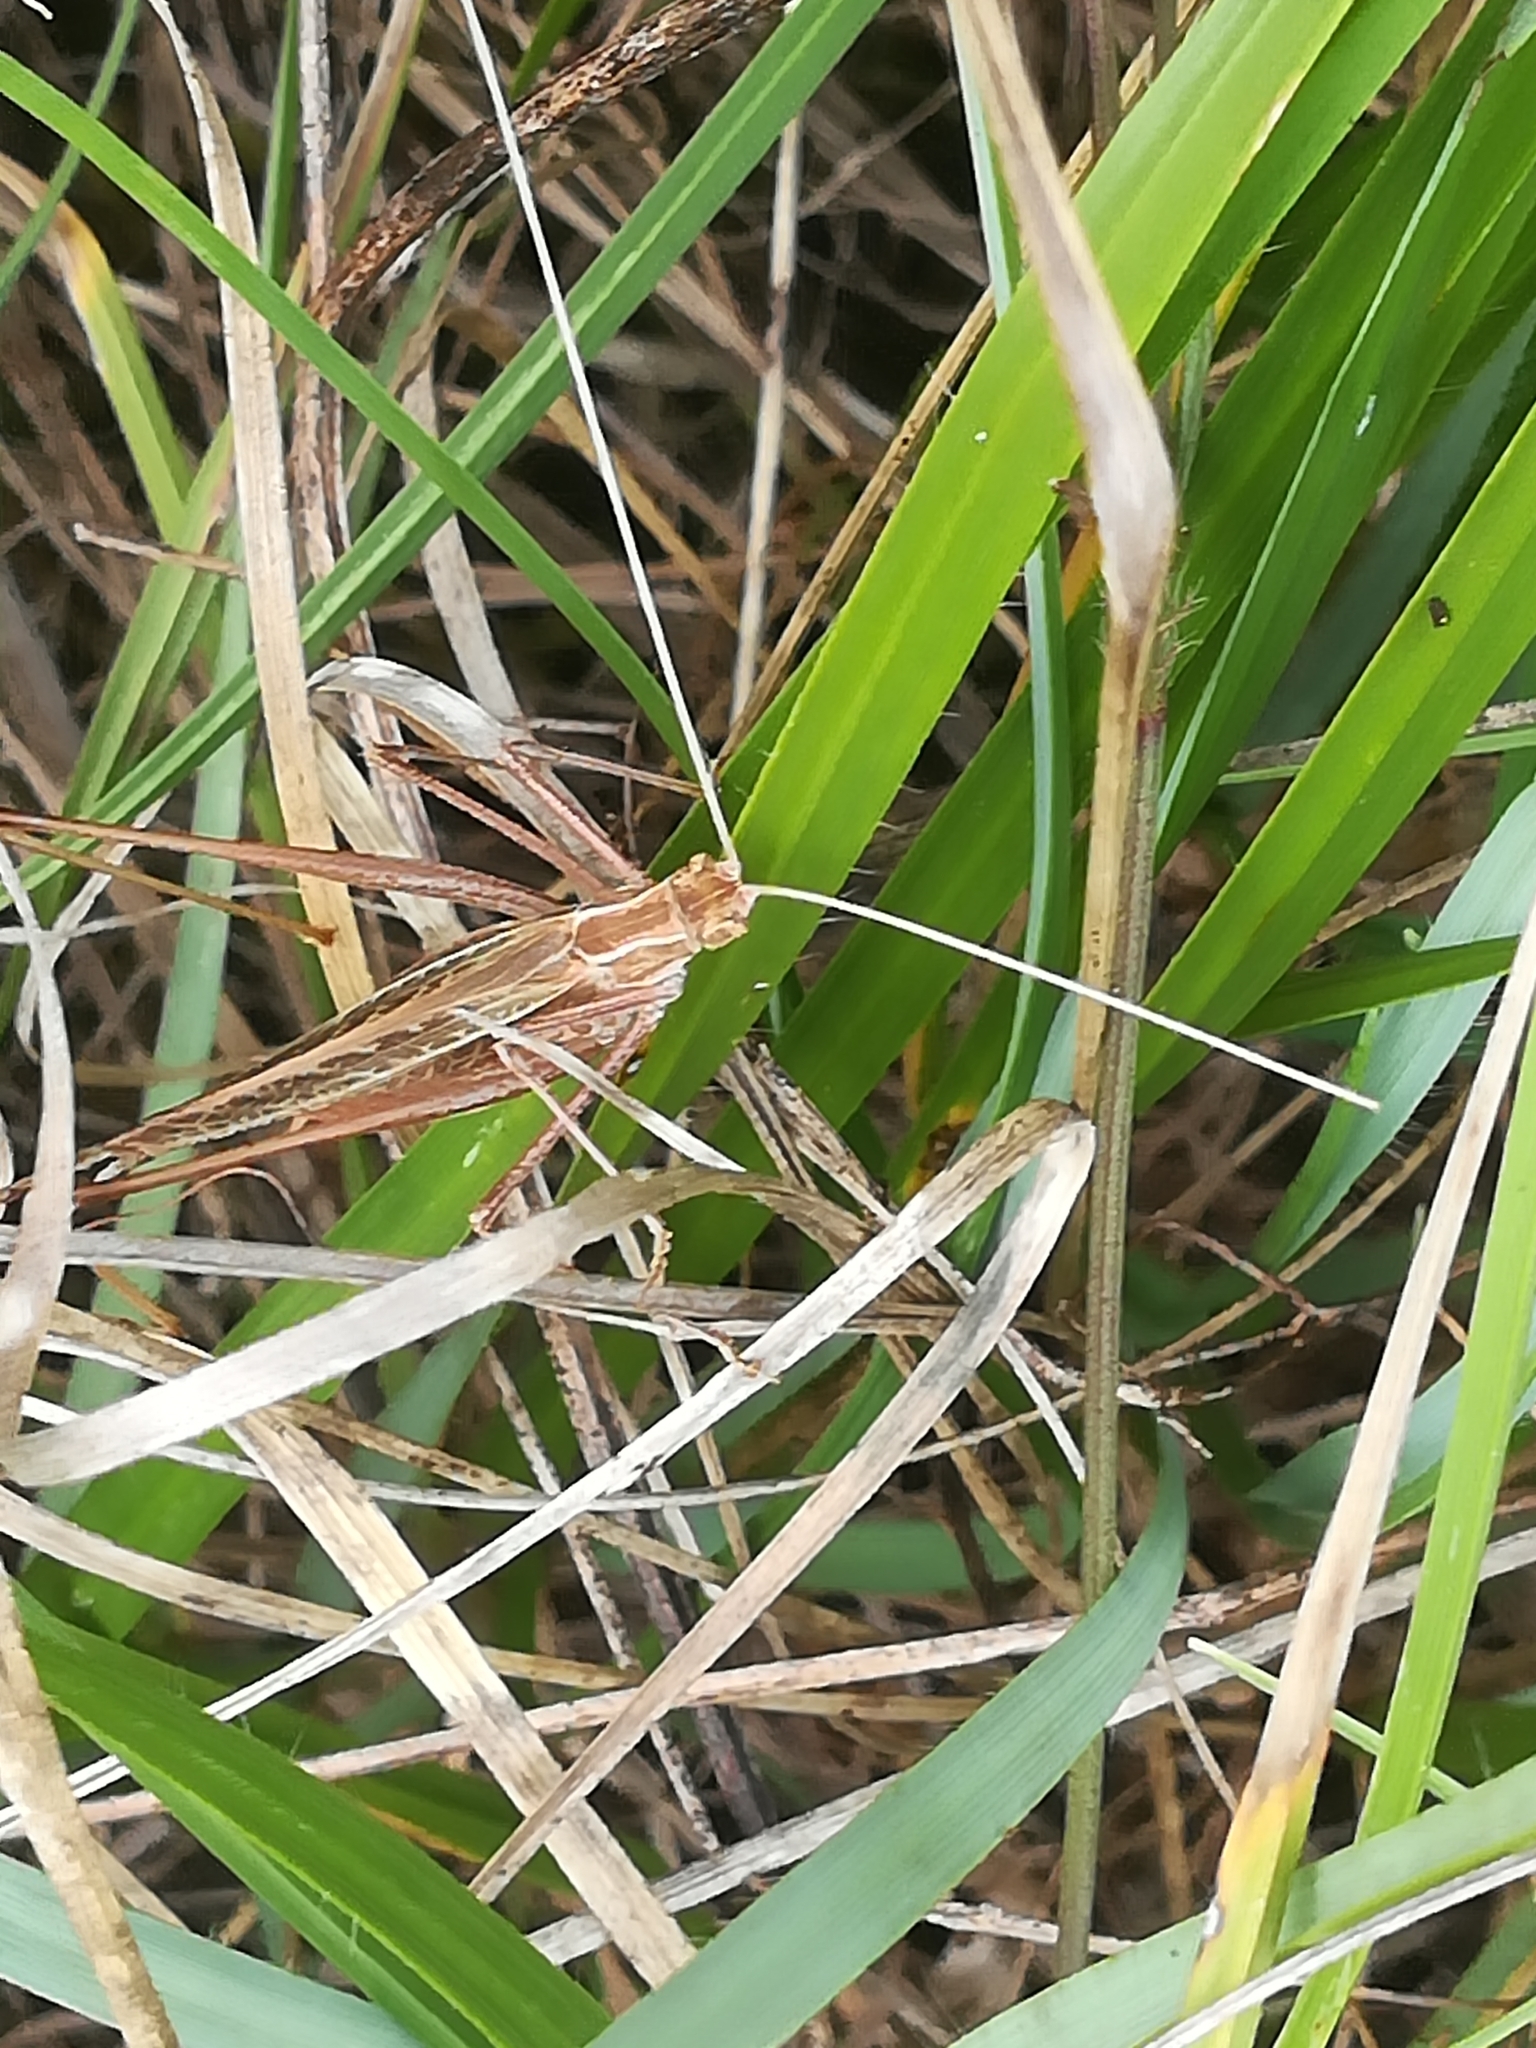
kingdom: Animalia
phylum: Arthropoda
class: Insecta
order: Orthoptera
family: Tettigoniidae
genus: Tylopsis
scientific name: Tylopsis lilifolia
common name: Lily bush-cricket
